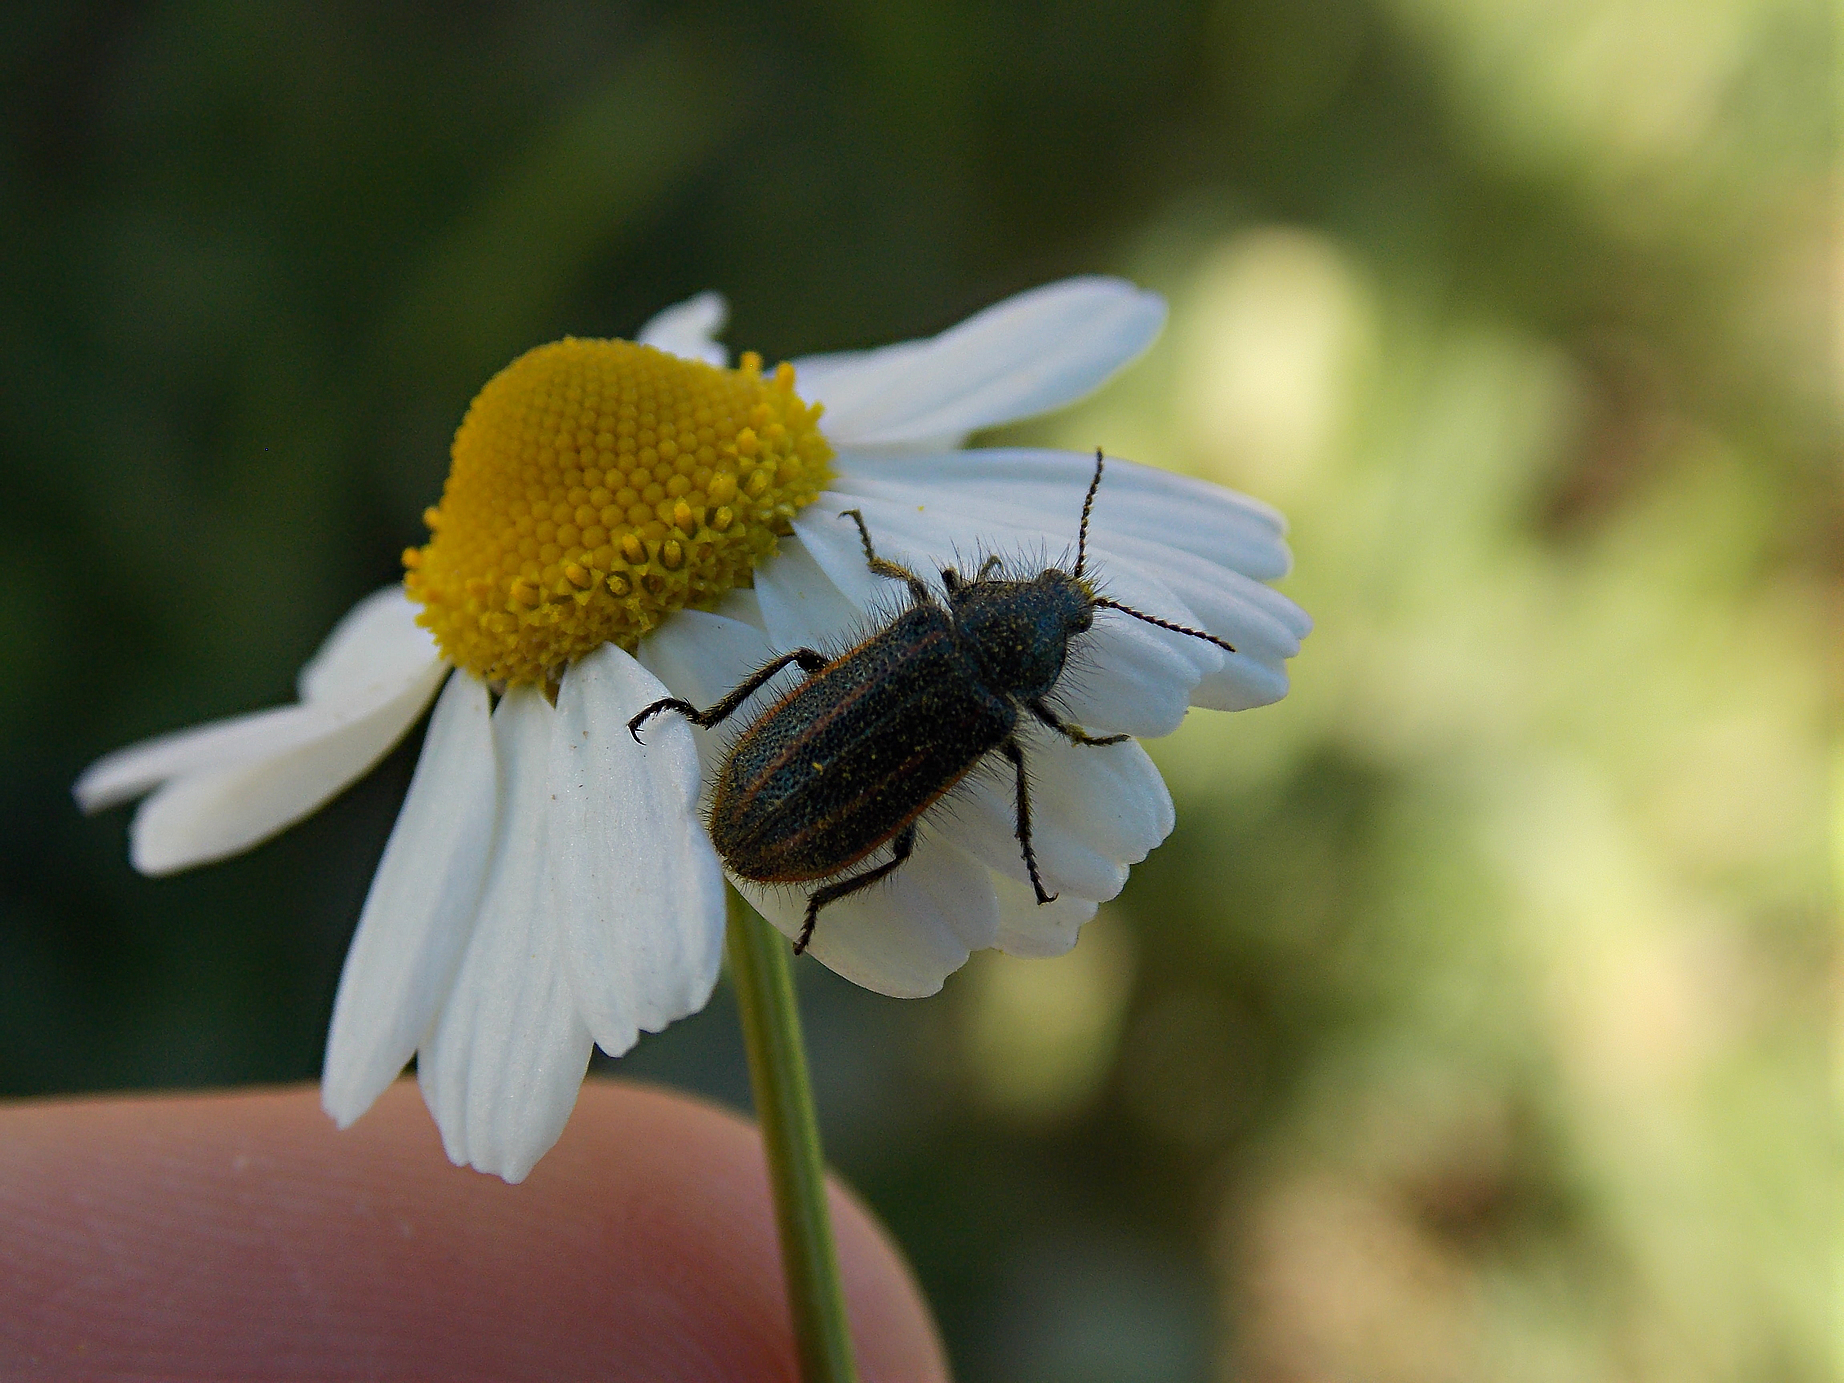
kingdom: Animalia
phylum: Arthropoda
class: Insecta
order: Coleoptera
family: Melyridae
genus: Astylus
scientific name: Astylus
